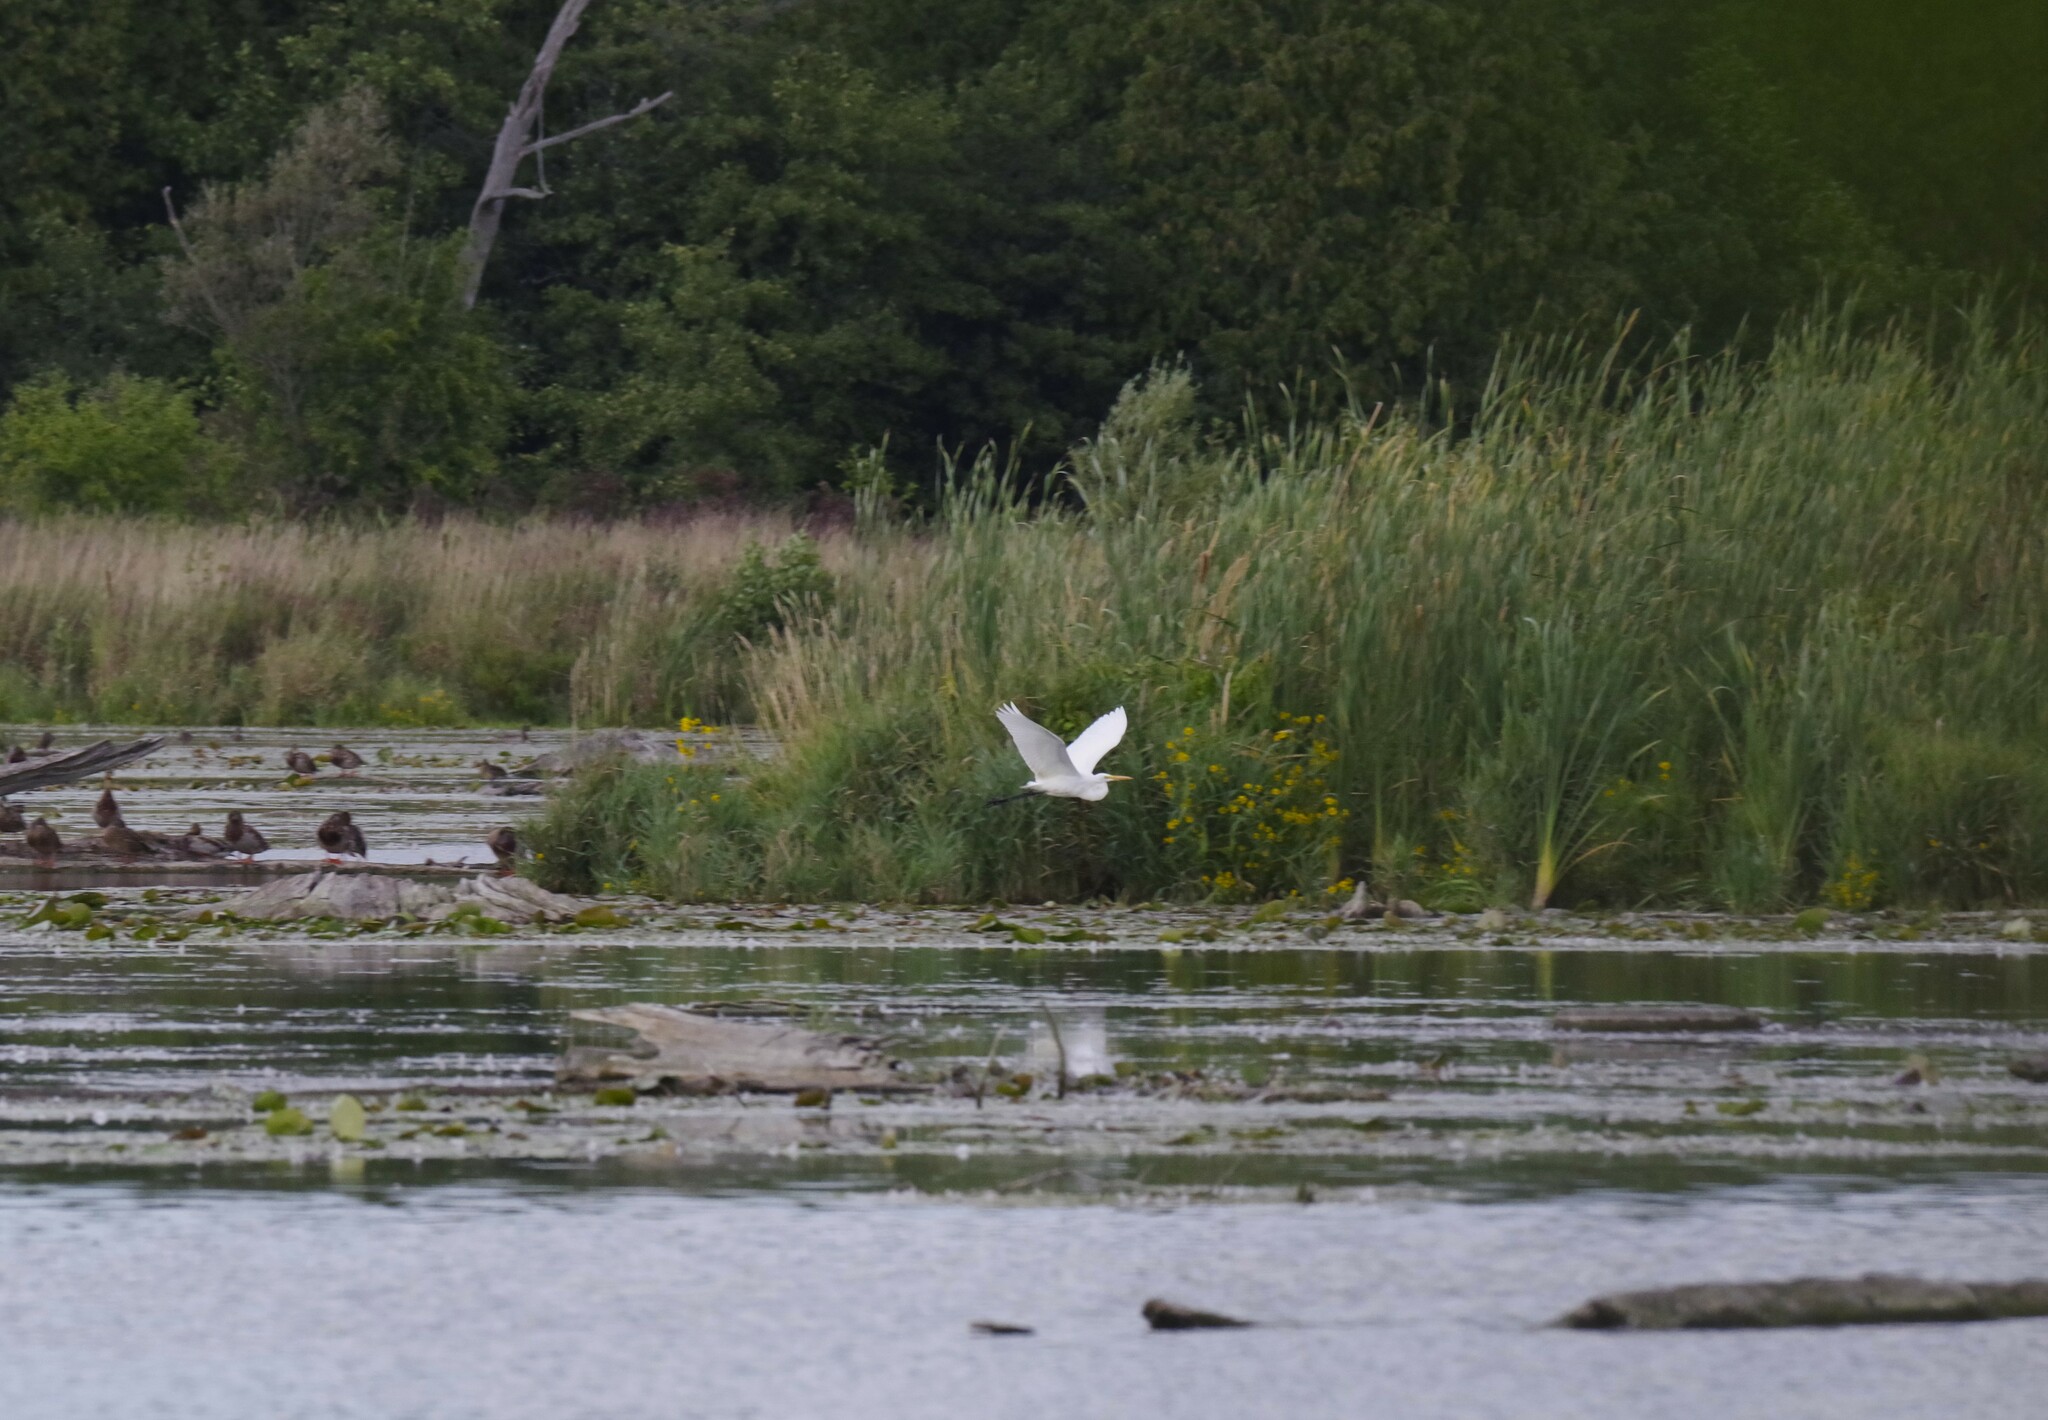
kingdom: Animalia
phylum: Chordata
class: Aves
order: Pelecaniformes
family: Ardeidae
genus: Ardea
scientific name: Ardea alba
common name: Great egret
